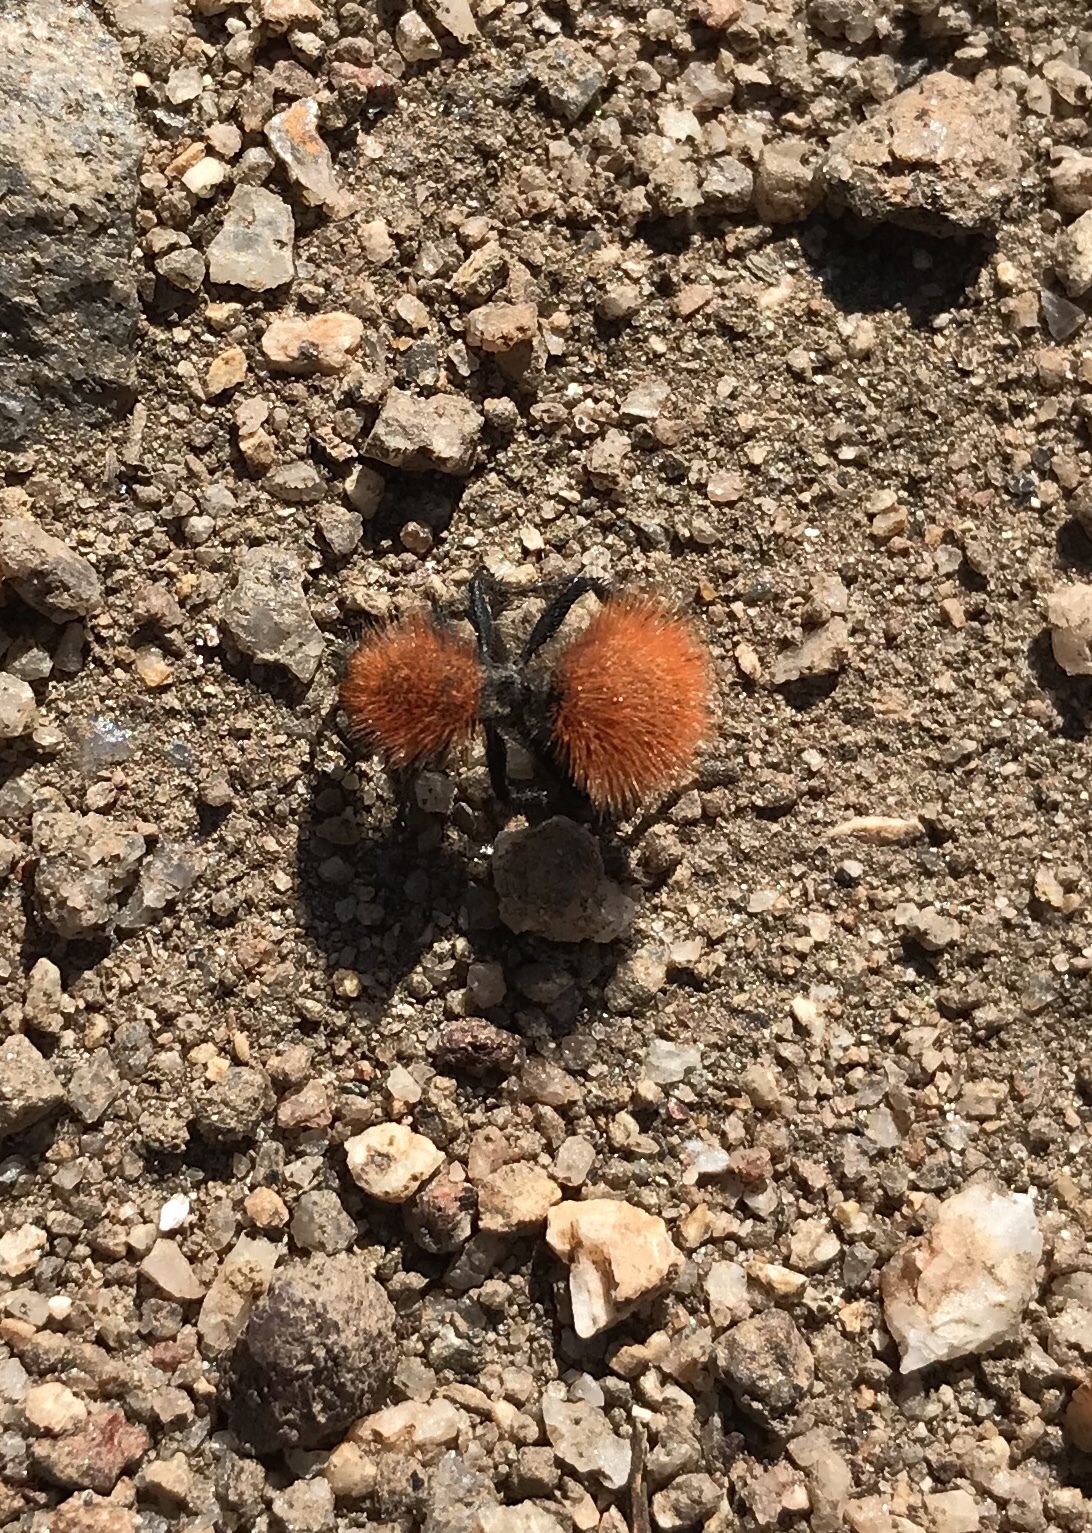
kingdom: Animalia
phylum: Arthropoda
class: Insecta
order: Hymenoptera
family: Mutillidae
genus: Dasymutilla
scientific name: Dasymutilla
